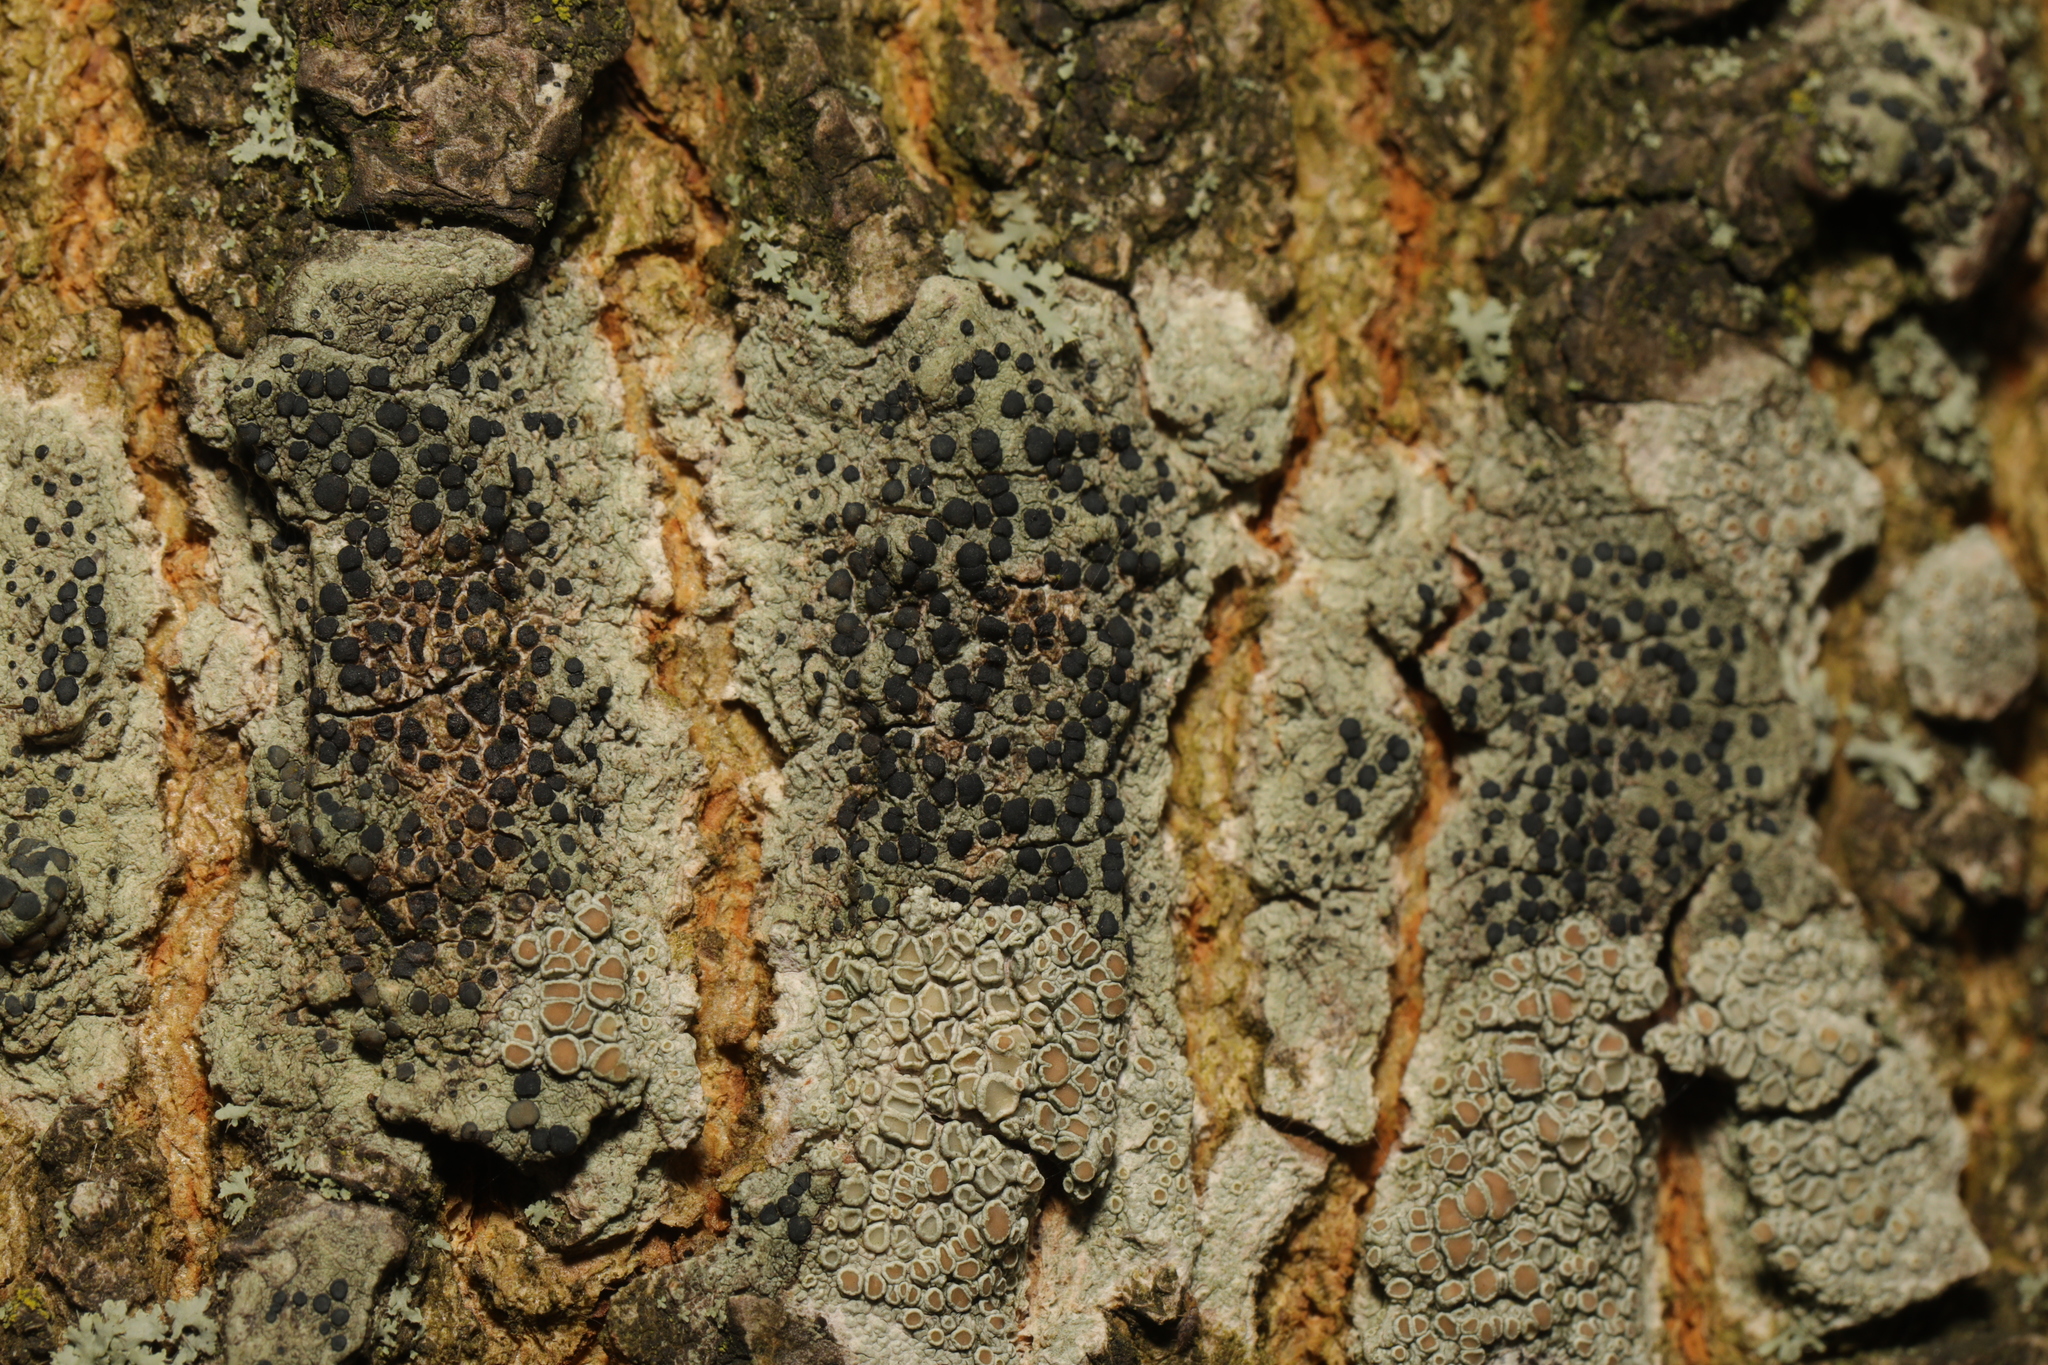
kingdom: Fungi
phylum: Ascomycota
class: Lecanoromycetes
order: Lecanorales
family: Lecanoraceae
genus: Lecidella
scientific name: Lecidella elaeochroma
